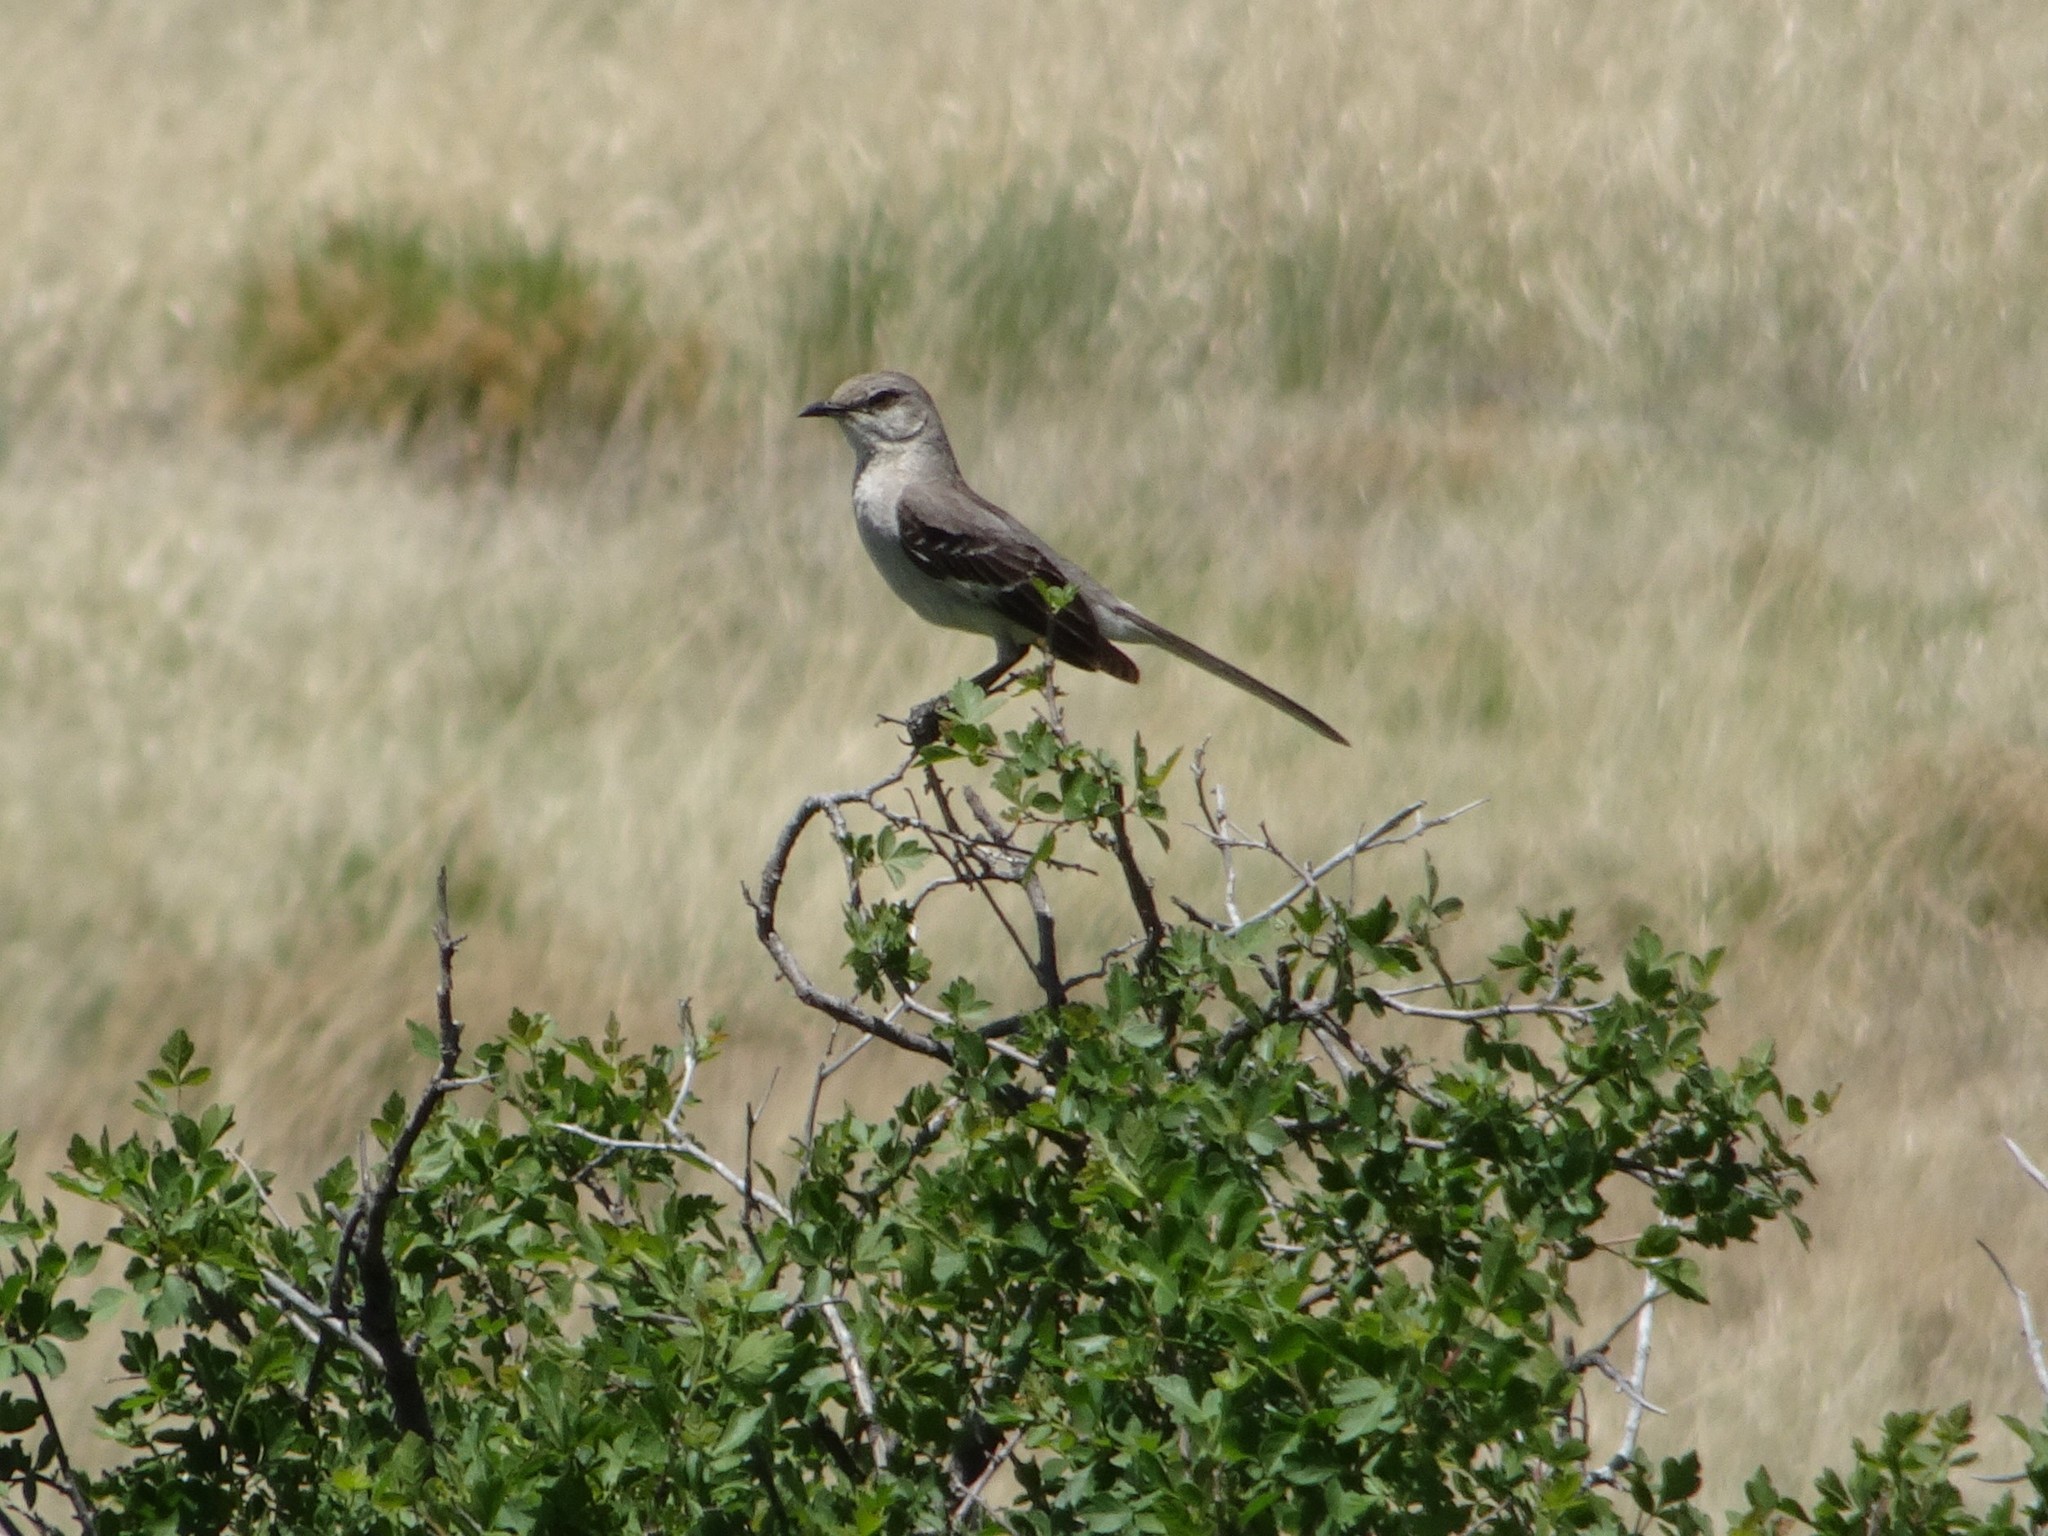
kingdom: Animalia
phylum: Chordata
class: Aves
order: Passeriformes
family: Mimidae
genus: Mimus
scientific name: Mimus polyglottos
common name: Northern mockingbird
